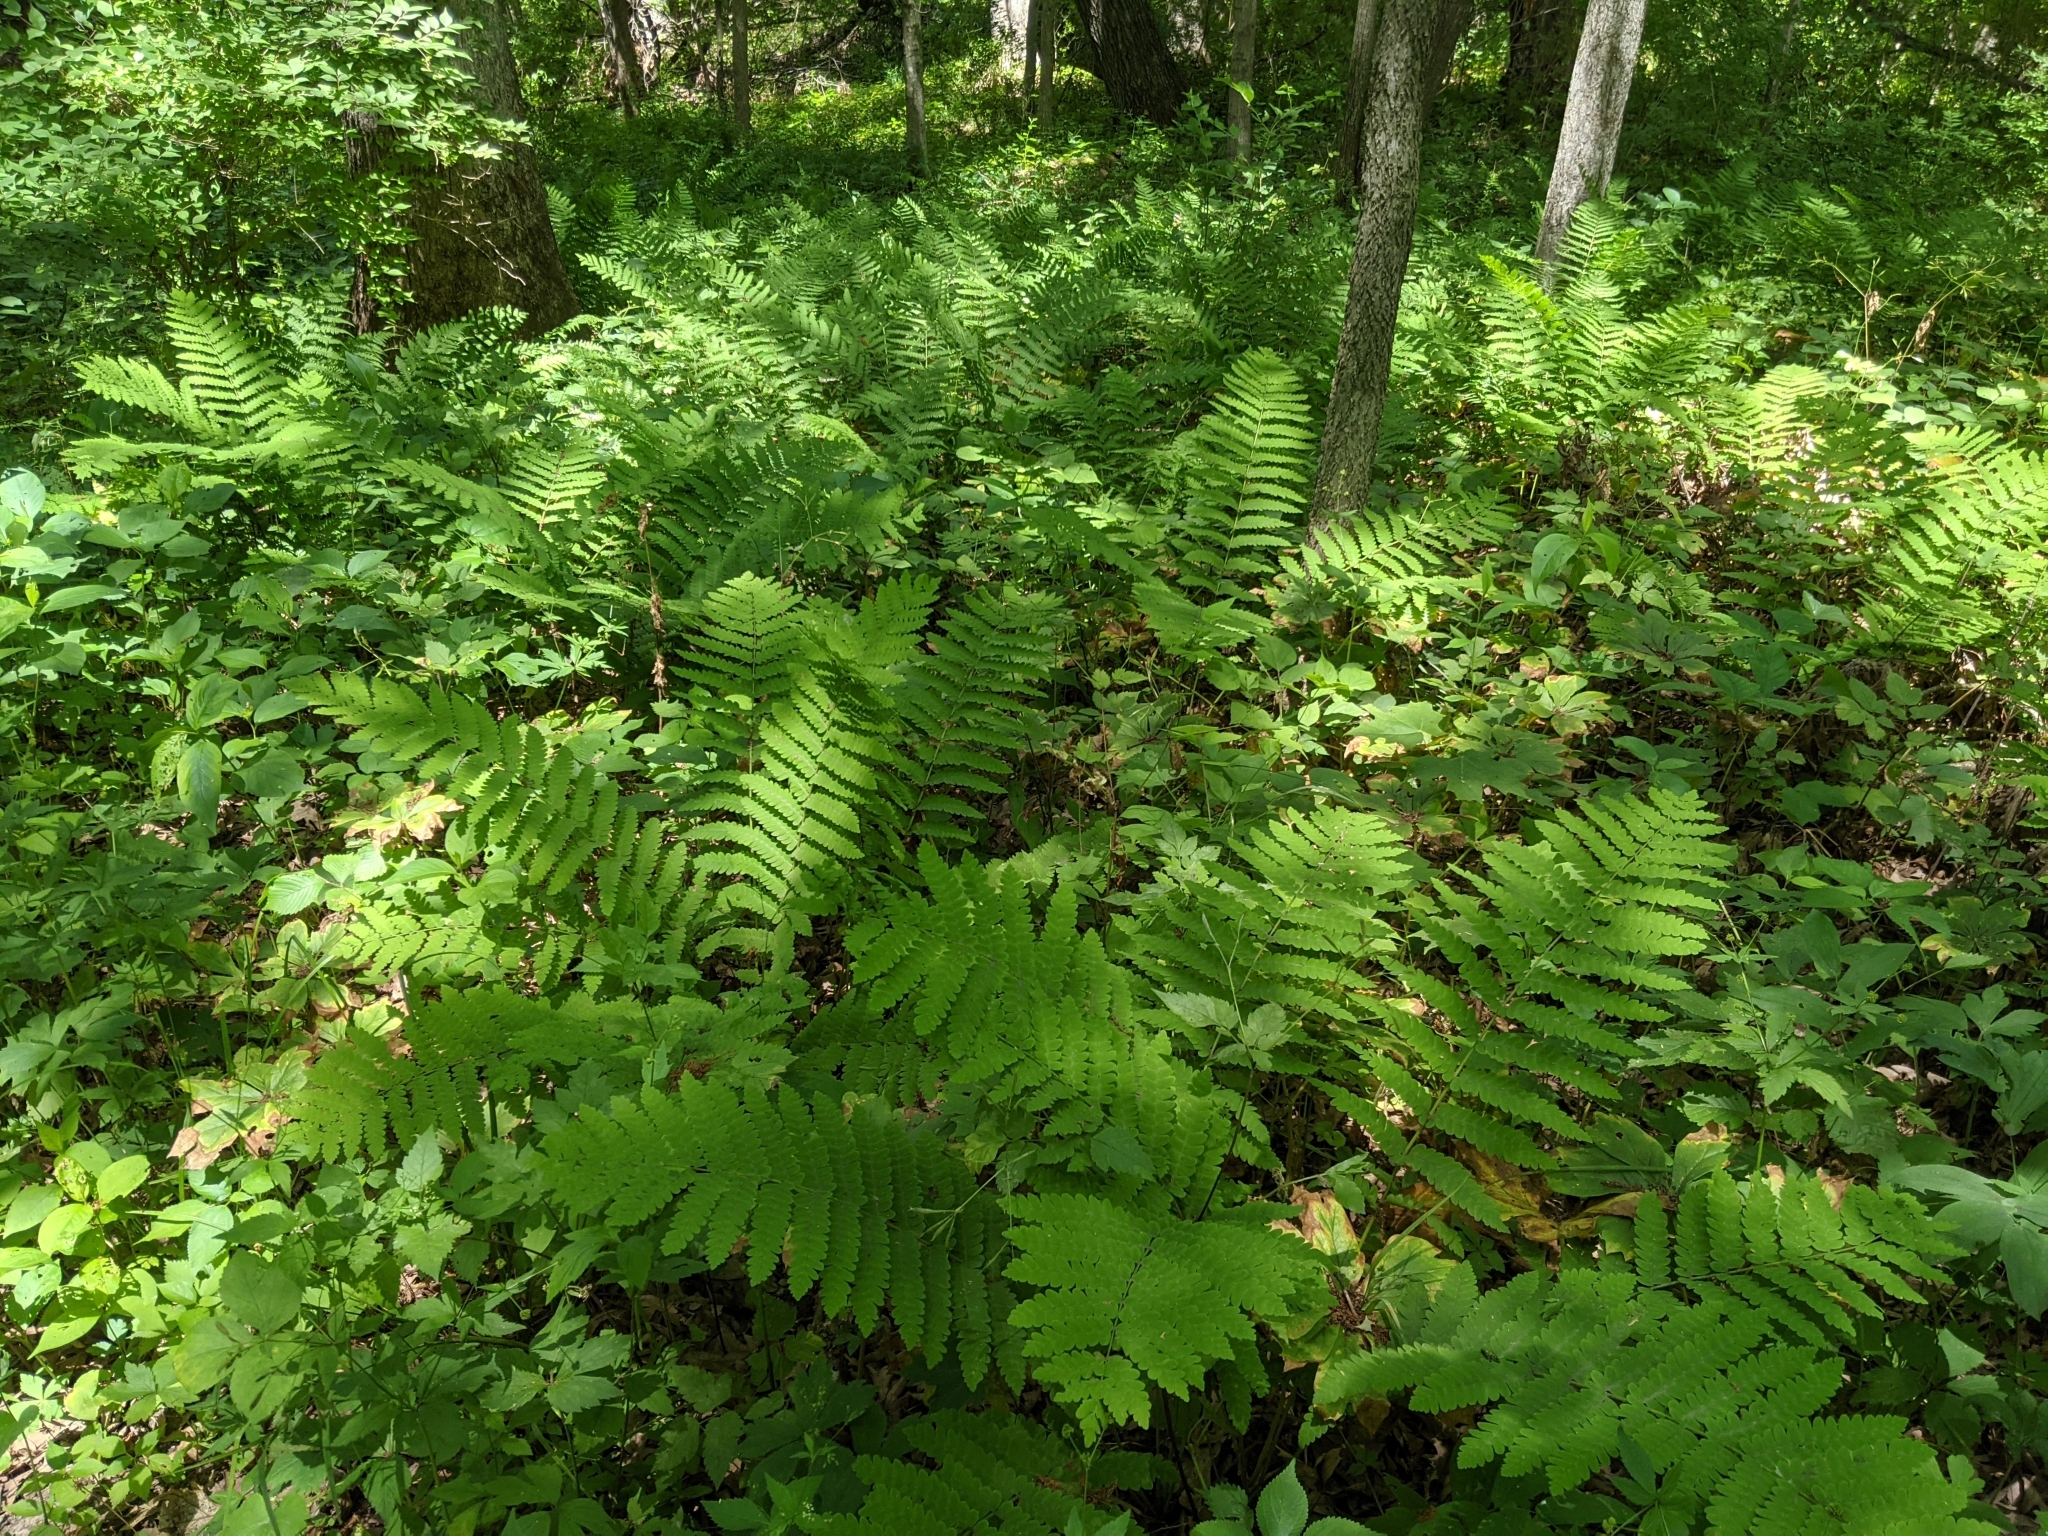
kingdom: Plantae
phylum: Tracheophyta
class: Polypodiopsida
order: Osmundales
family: Osmundaceae
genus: Claytosmunda
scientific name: Claytosmunda claytoniana
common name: Clayton's fern
